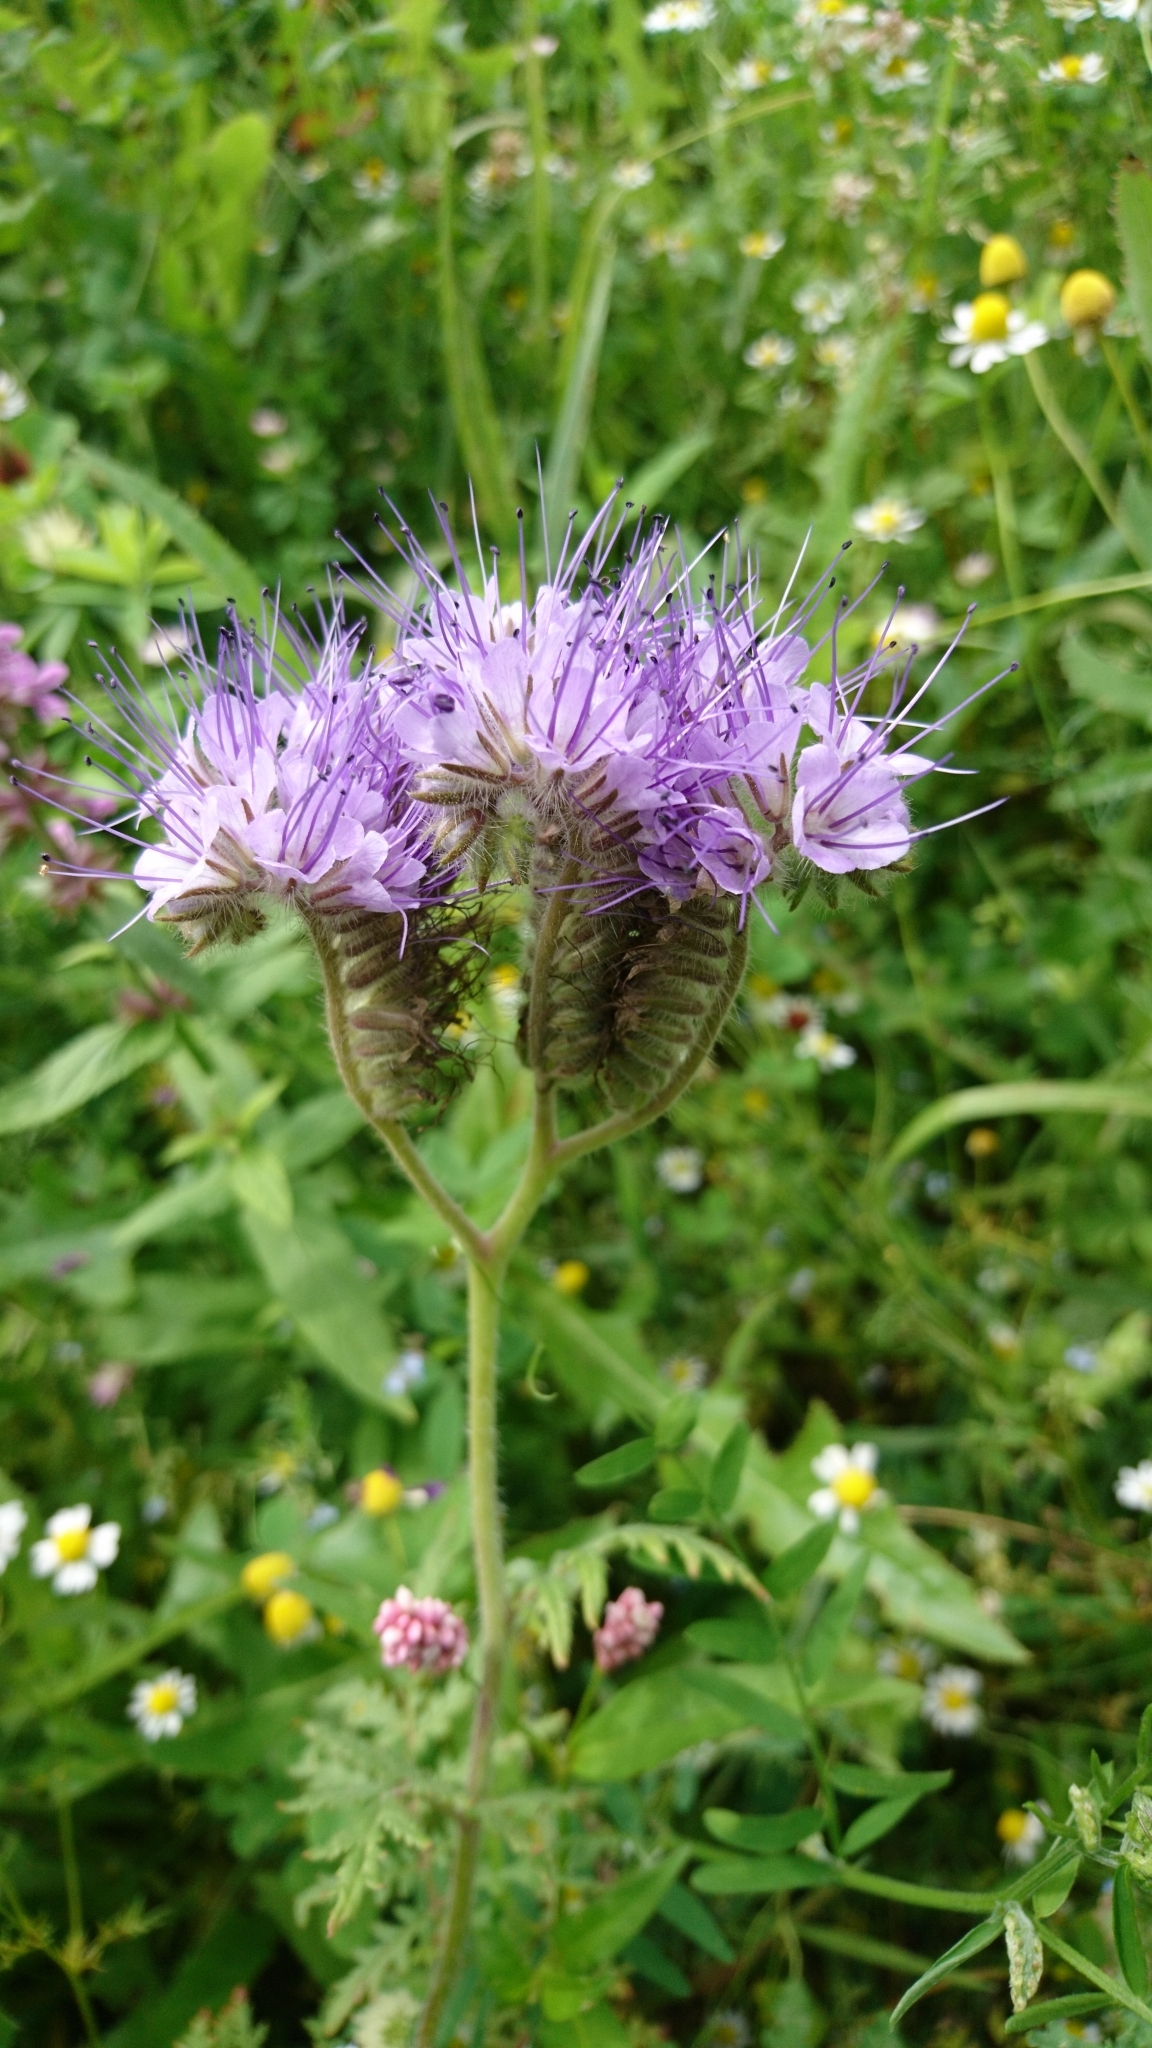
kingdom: Plantae
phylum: Tracheophyta
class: Magnoliopsida
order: Boraginales
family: Hydrophyllaceae
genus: Phacelia
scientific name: Phacelia tanacetifolia
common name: Phacelia
